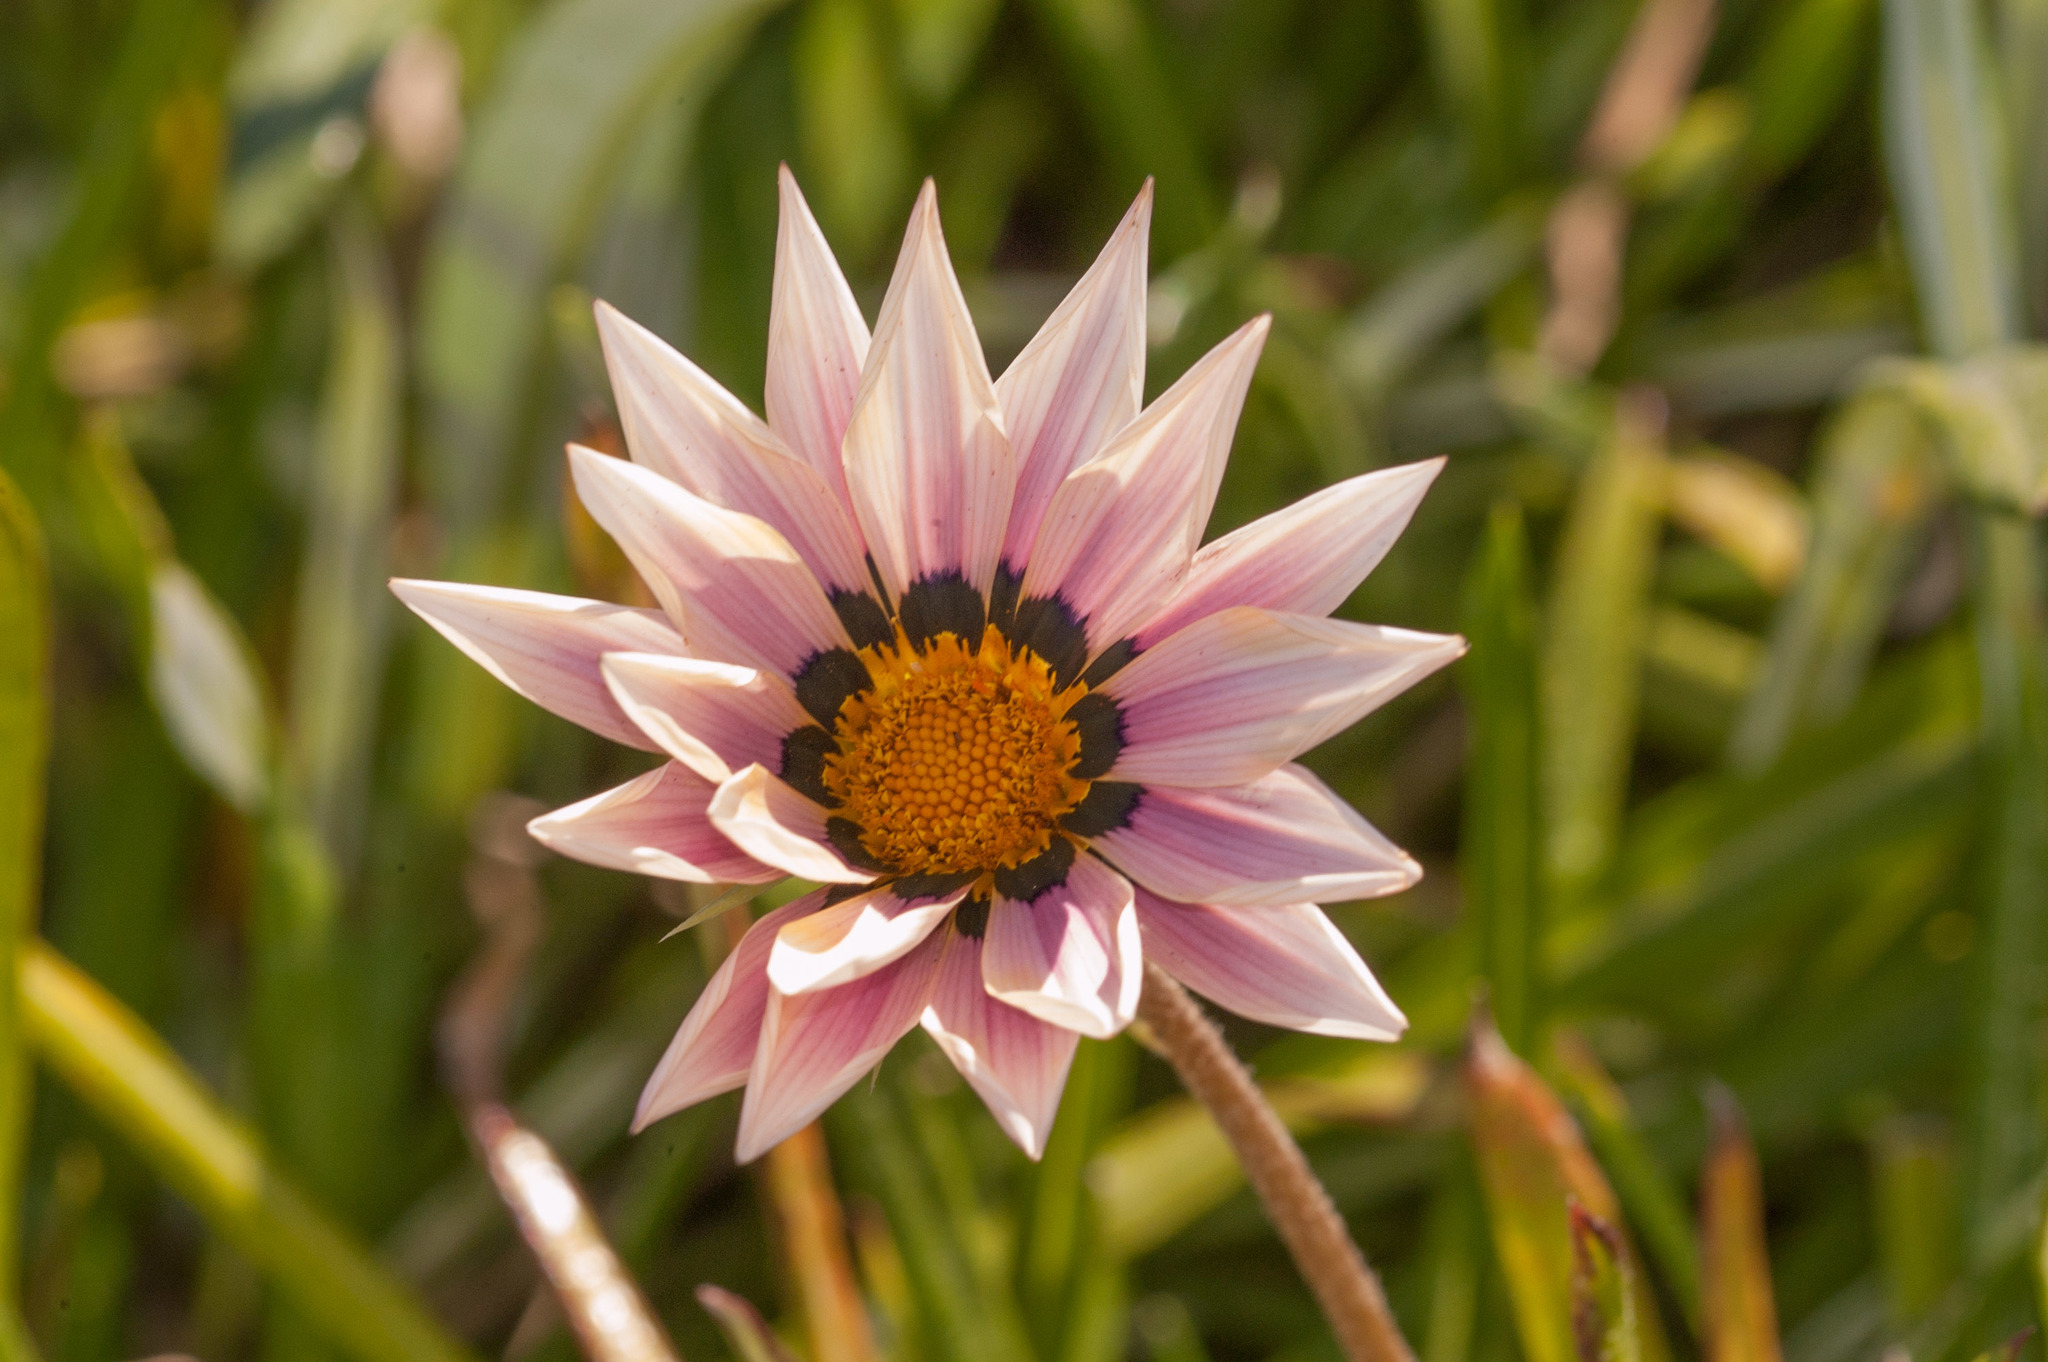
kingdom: Plantae
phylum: Tracheophyta
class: Magnoliopsida
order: Asterales
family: Asteraceae
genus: Gazania
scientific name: Gazania splendens
